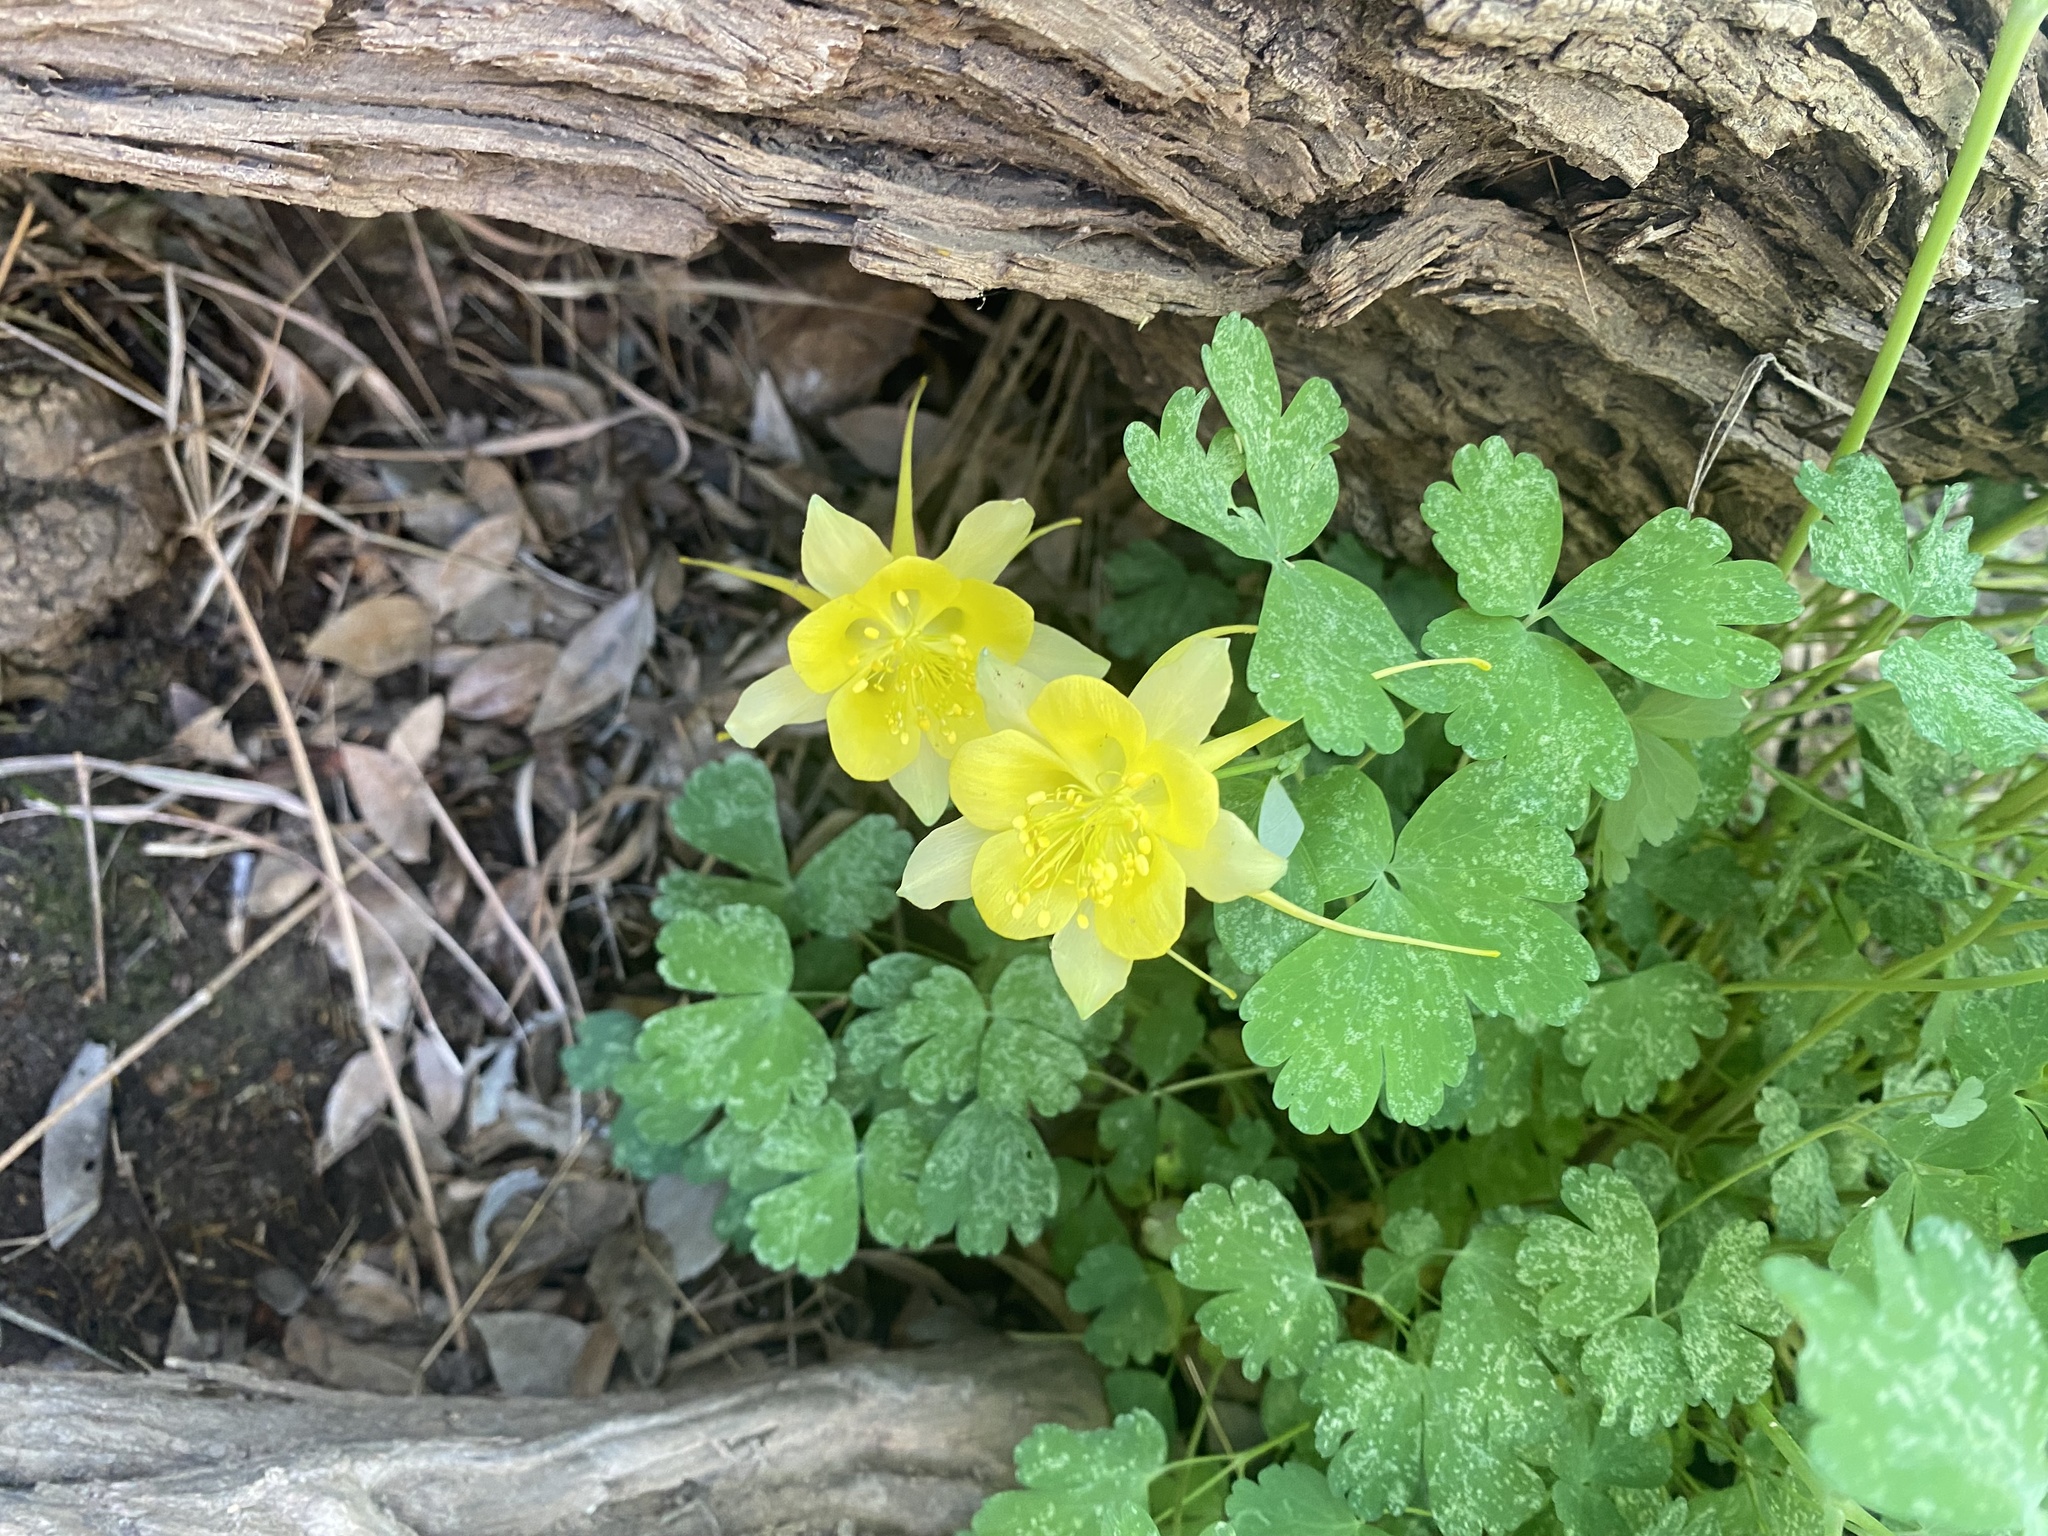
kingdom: Plantae
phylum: Tracheophyta
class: Magnoliopsida
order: Ranunculales
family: Ranunculaceae
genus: Aquilegia
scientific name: Aquilegia chrysantha
